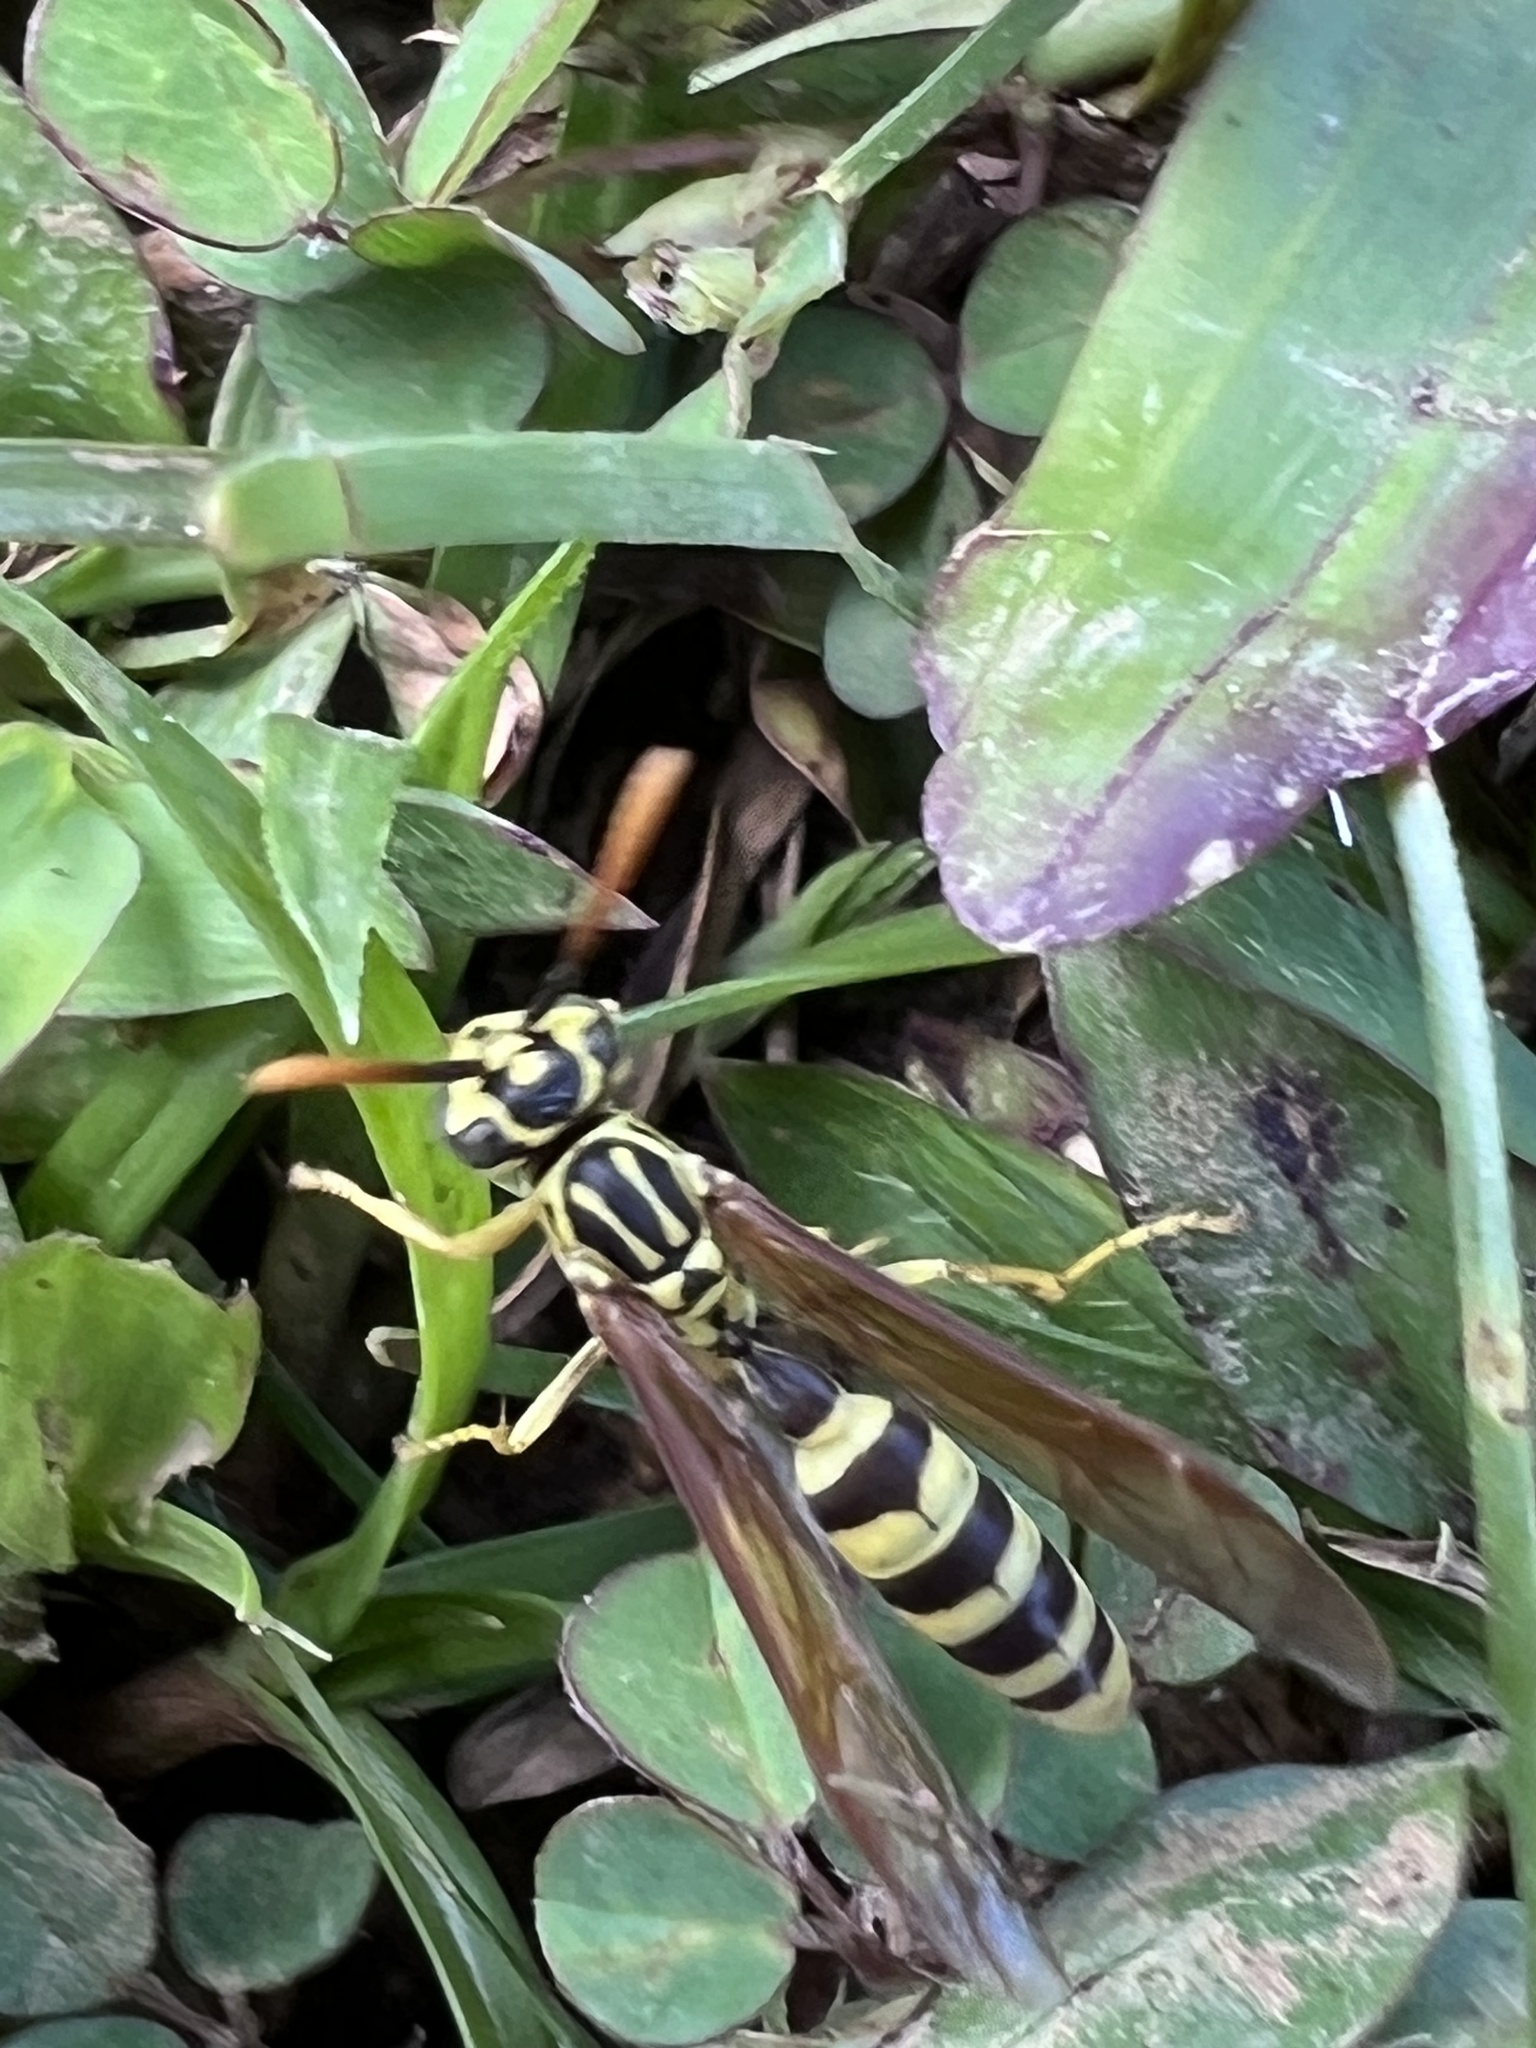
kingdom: Animalia
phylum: Arthropoda
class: Insecta
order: Hymenoptera
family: Vespidae
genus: Agelaia
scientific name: Agelaia areata
